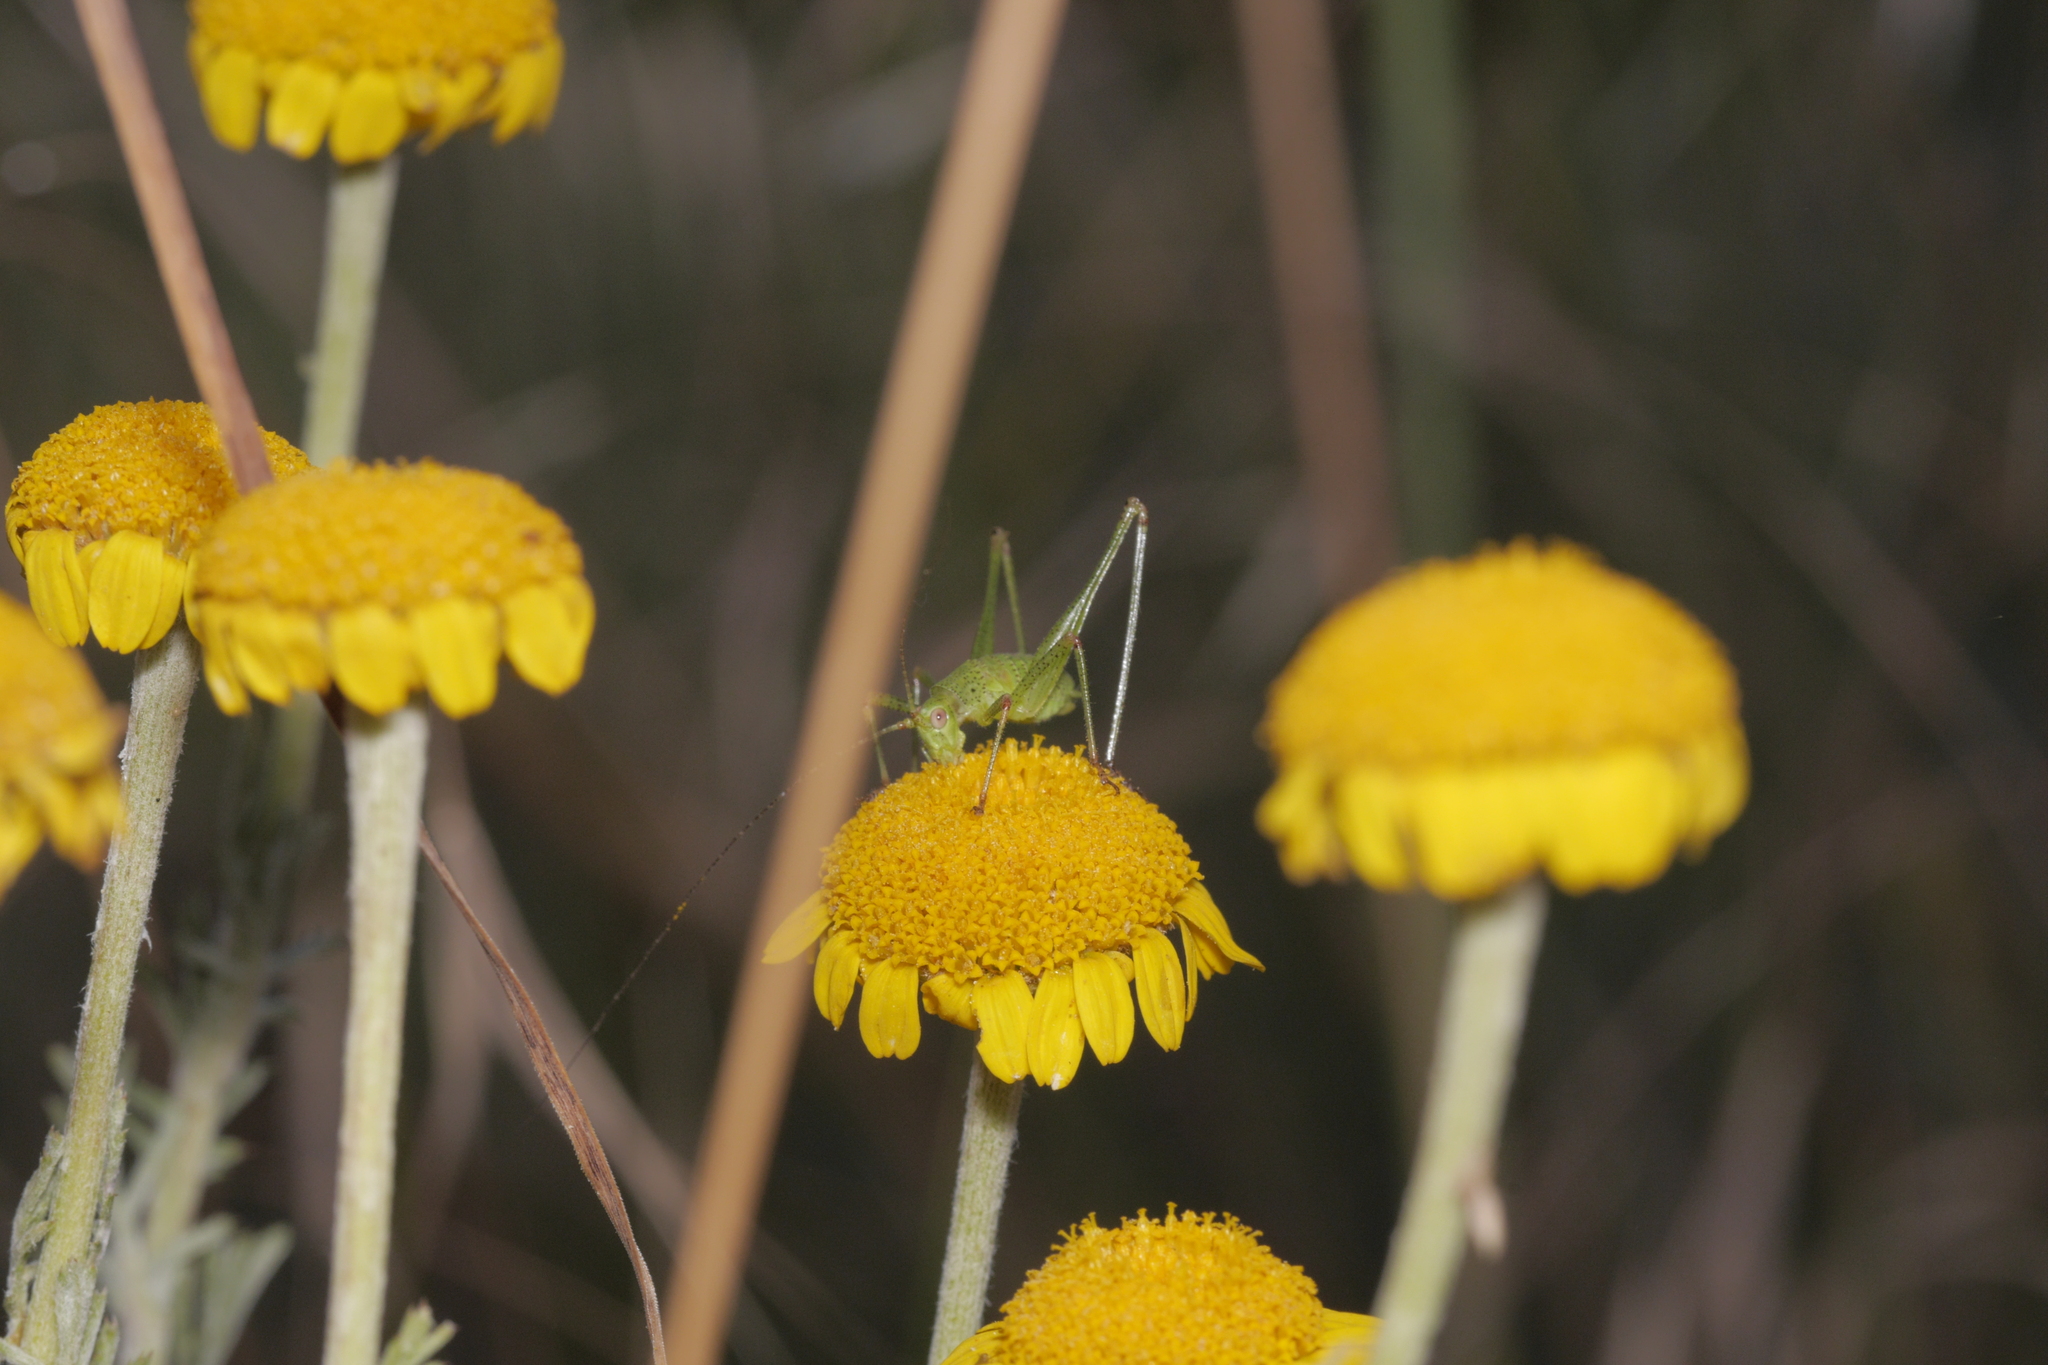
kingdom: Animalia
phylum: Arthropoda
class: Insecta
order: Orthoptera
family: Tettigoniidae
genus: Phaneroptera
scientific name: Phaneroptera falcata
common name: Sickle-bearing bush-cricket
